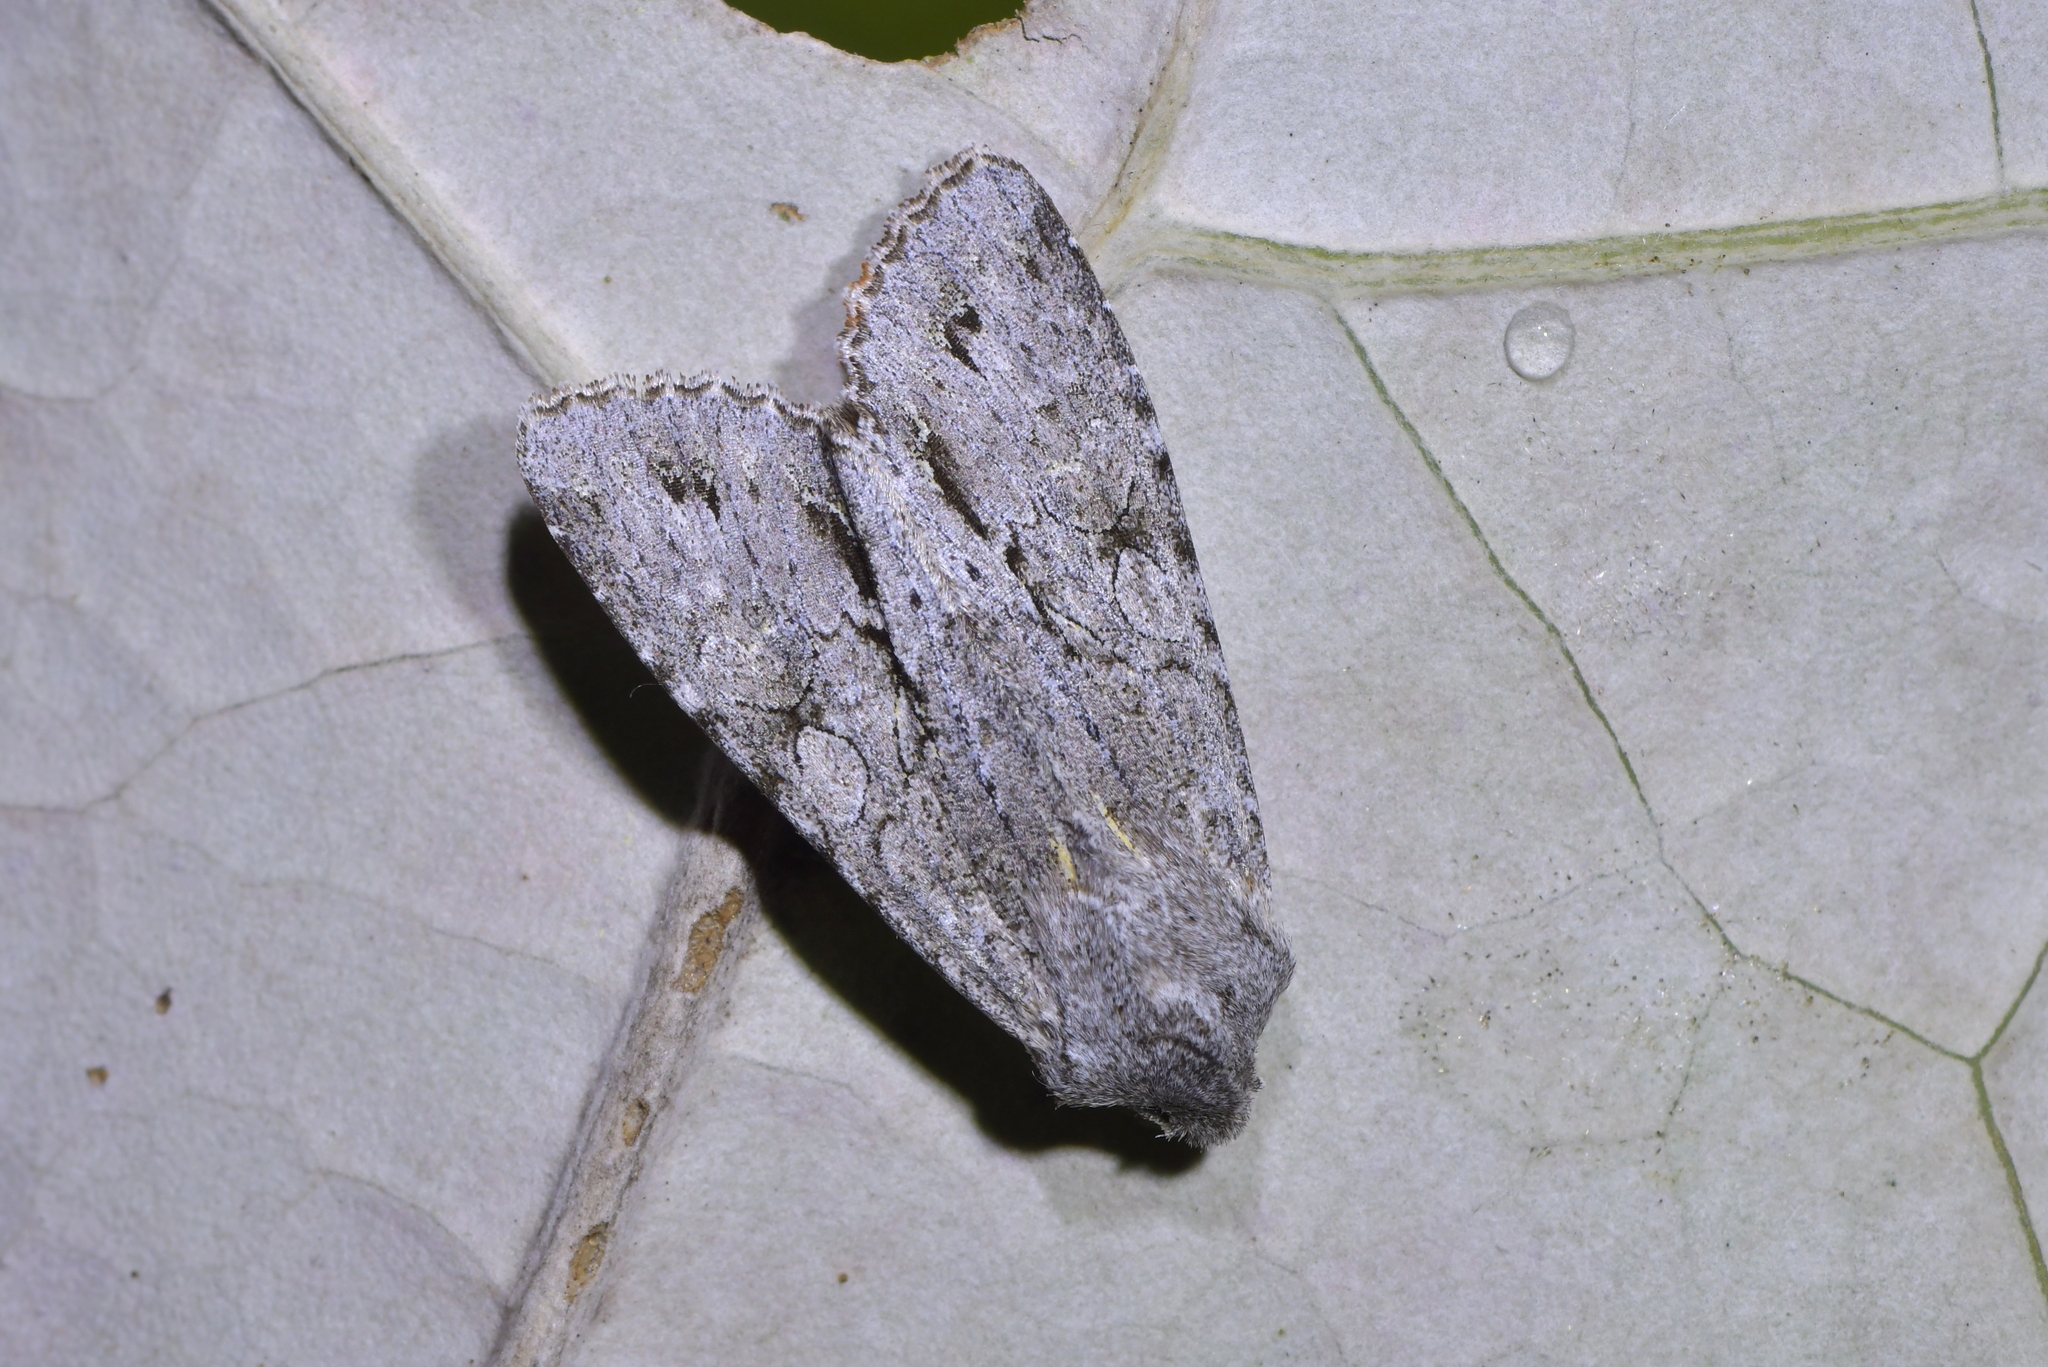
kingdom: Animalia
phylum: Arthropoda
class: Insecta
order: Lepidoptera
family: Noctuidae
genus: Ichneutica
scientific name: Ichneutica
